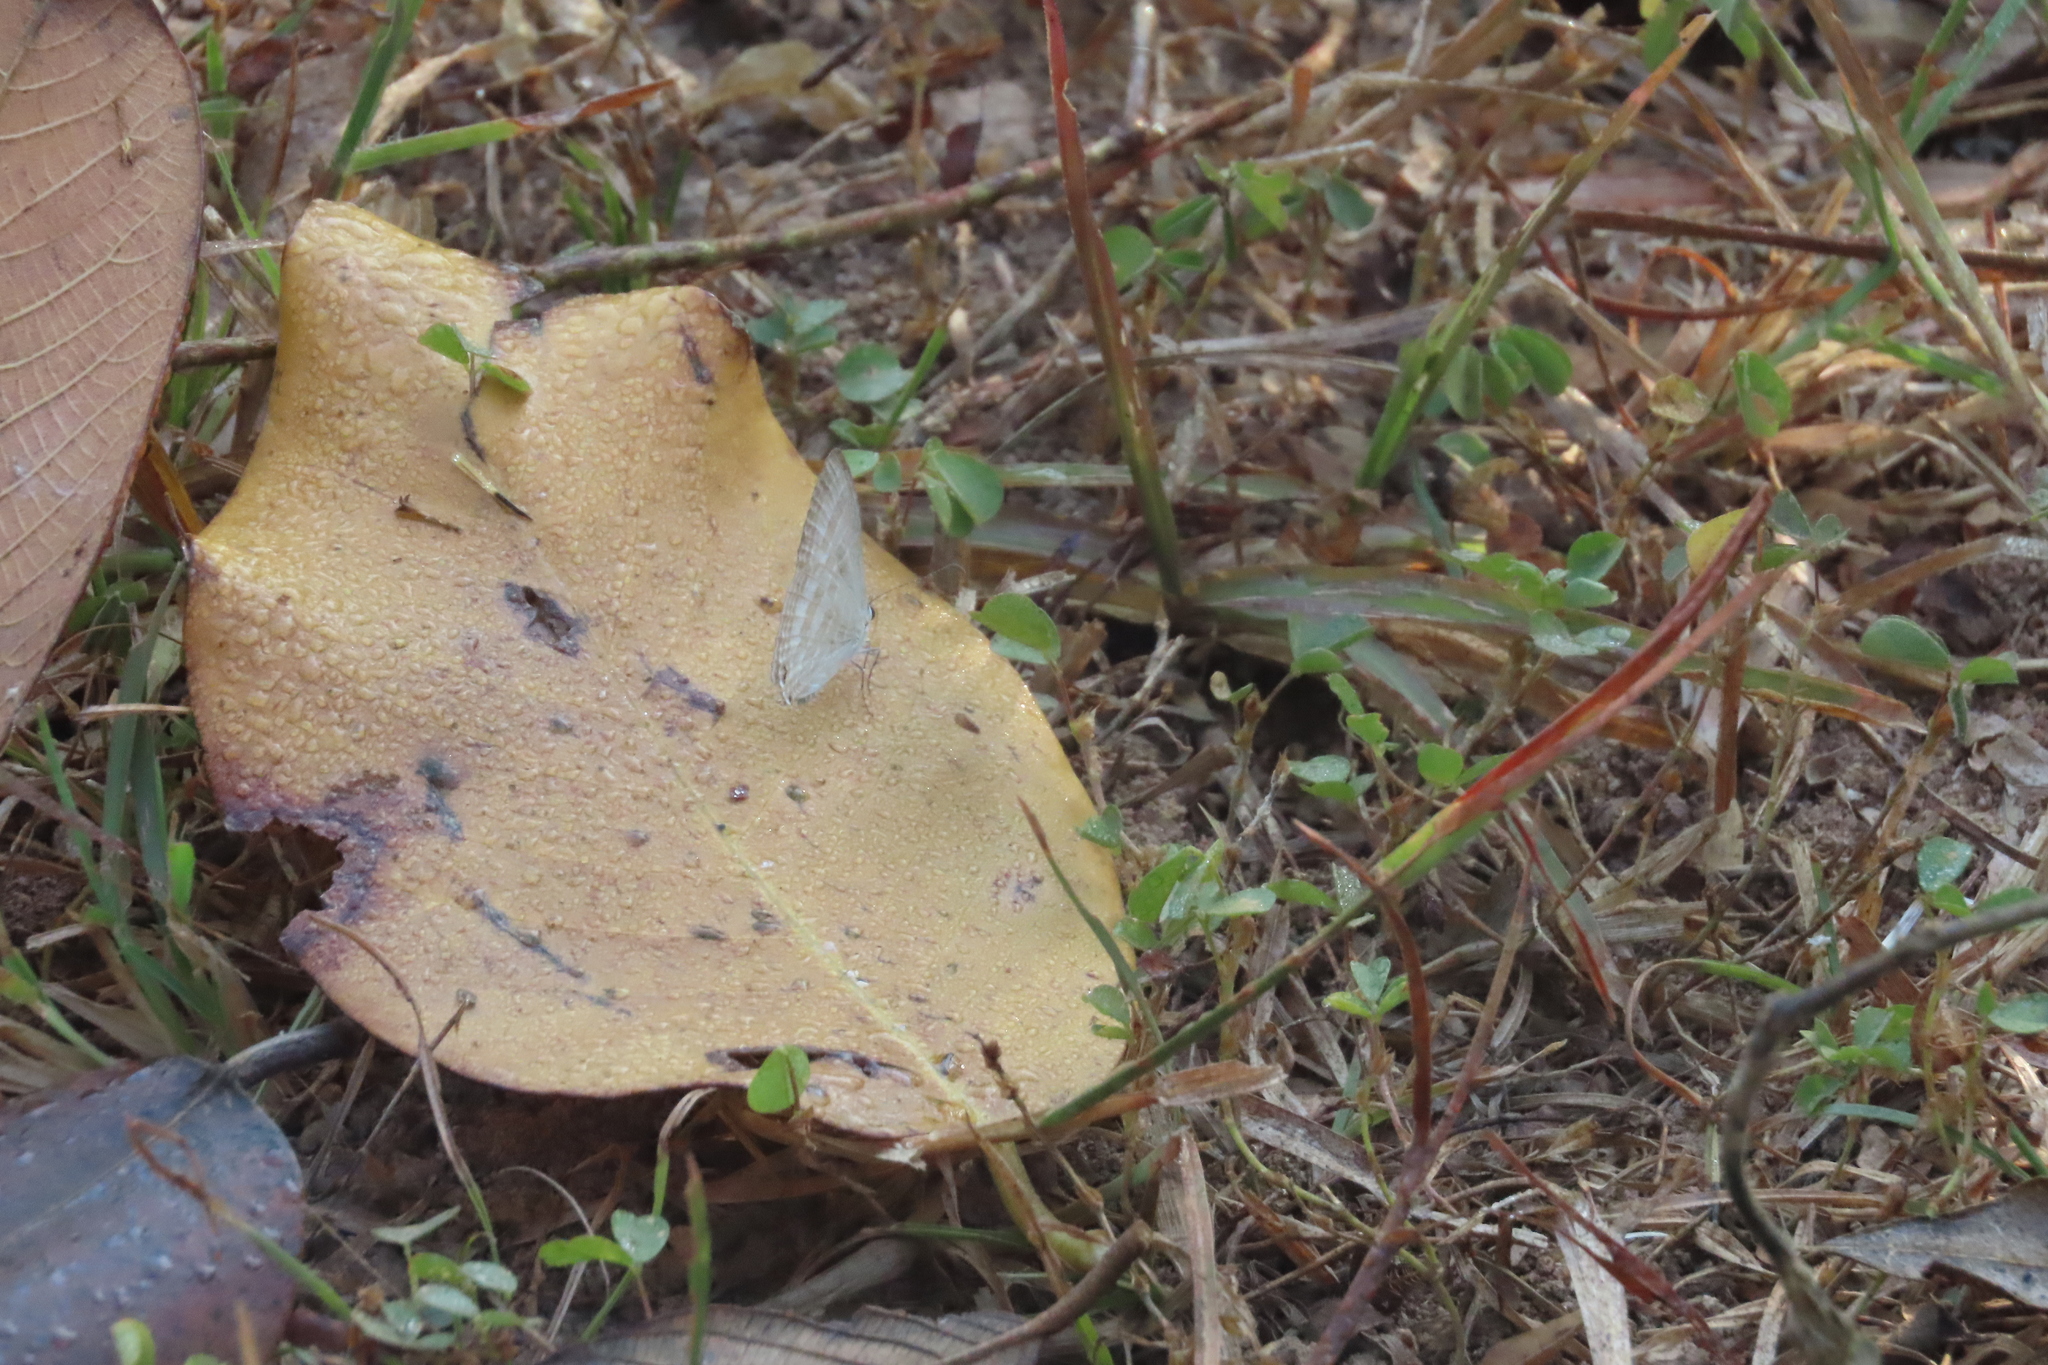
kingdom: Animalia
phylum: Arthropoda
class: Insecta
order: Lepidoptera
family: Lycaenidae
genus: Jamides
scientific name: Jamides celeno
